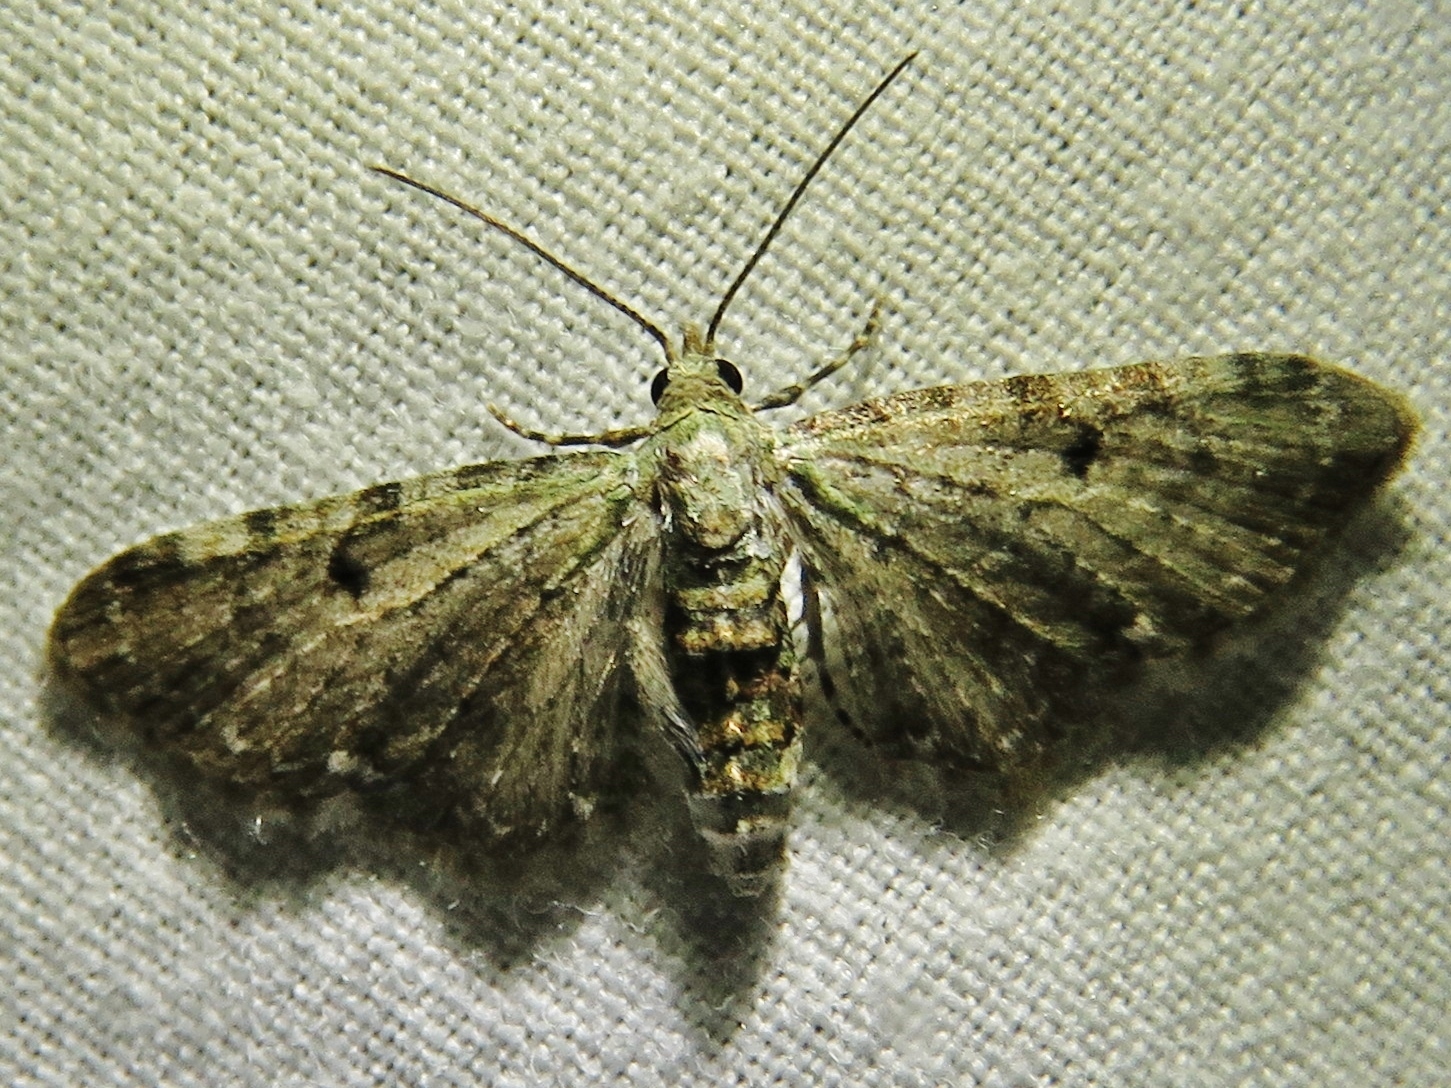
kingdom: Animalia
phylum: Arthropoda
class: Insecta
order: Lepidoptera
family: Geometridae
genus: Eupithecia
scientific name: Eupithecia miserulata
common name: Common eupithecia
